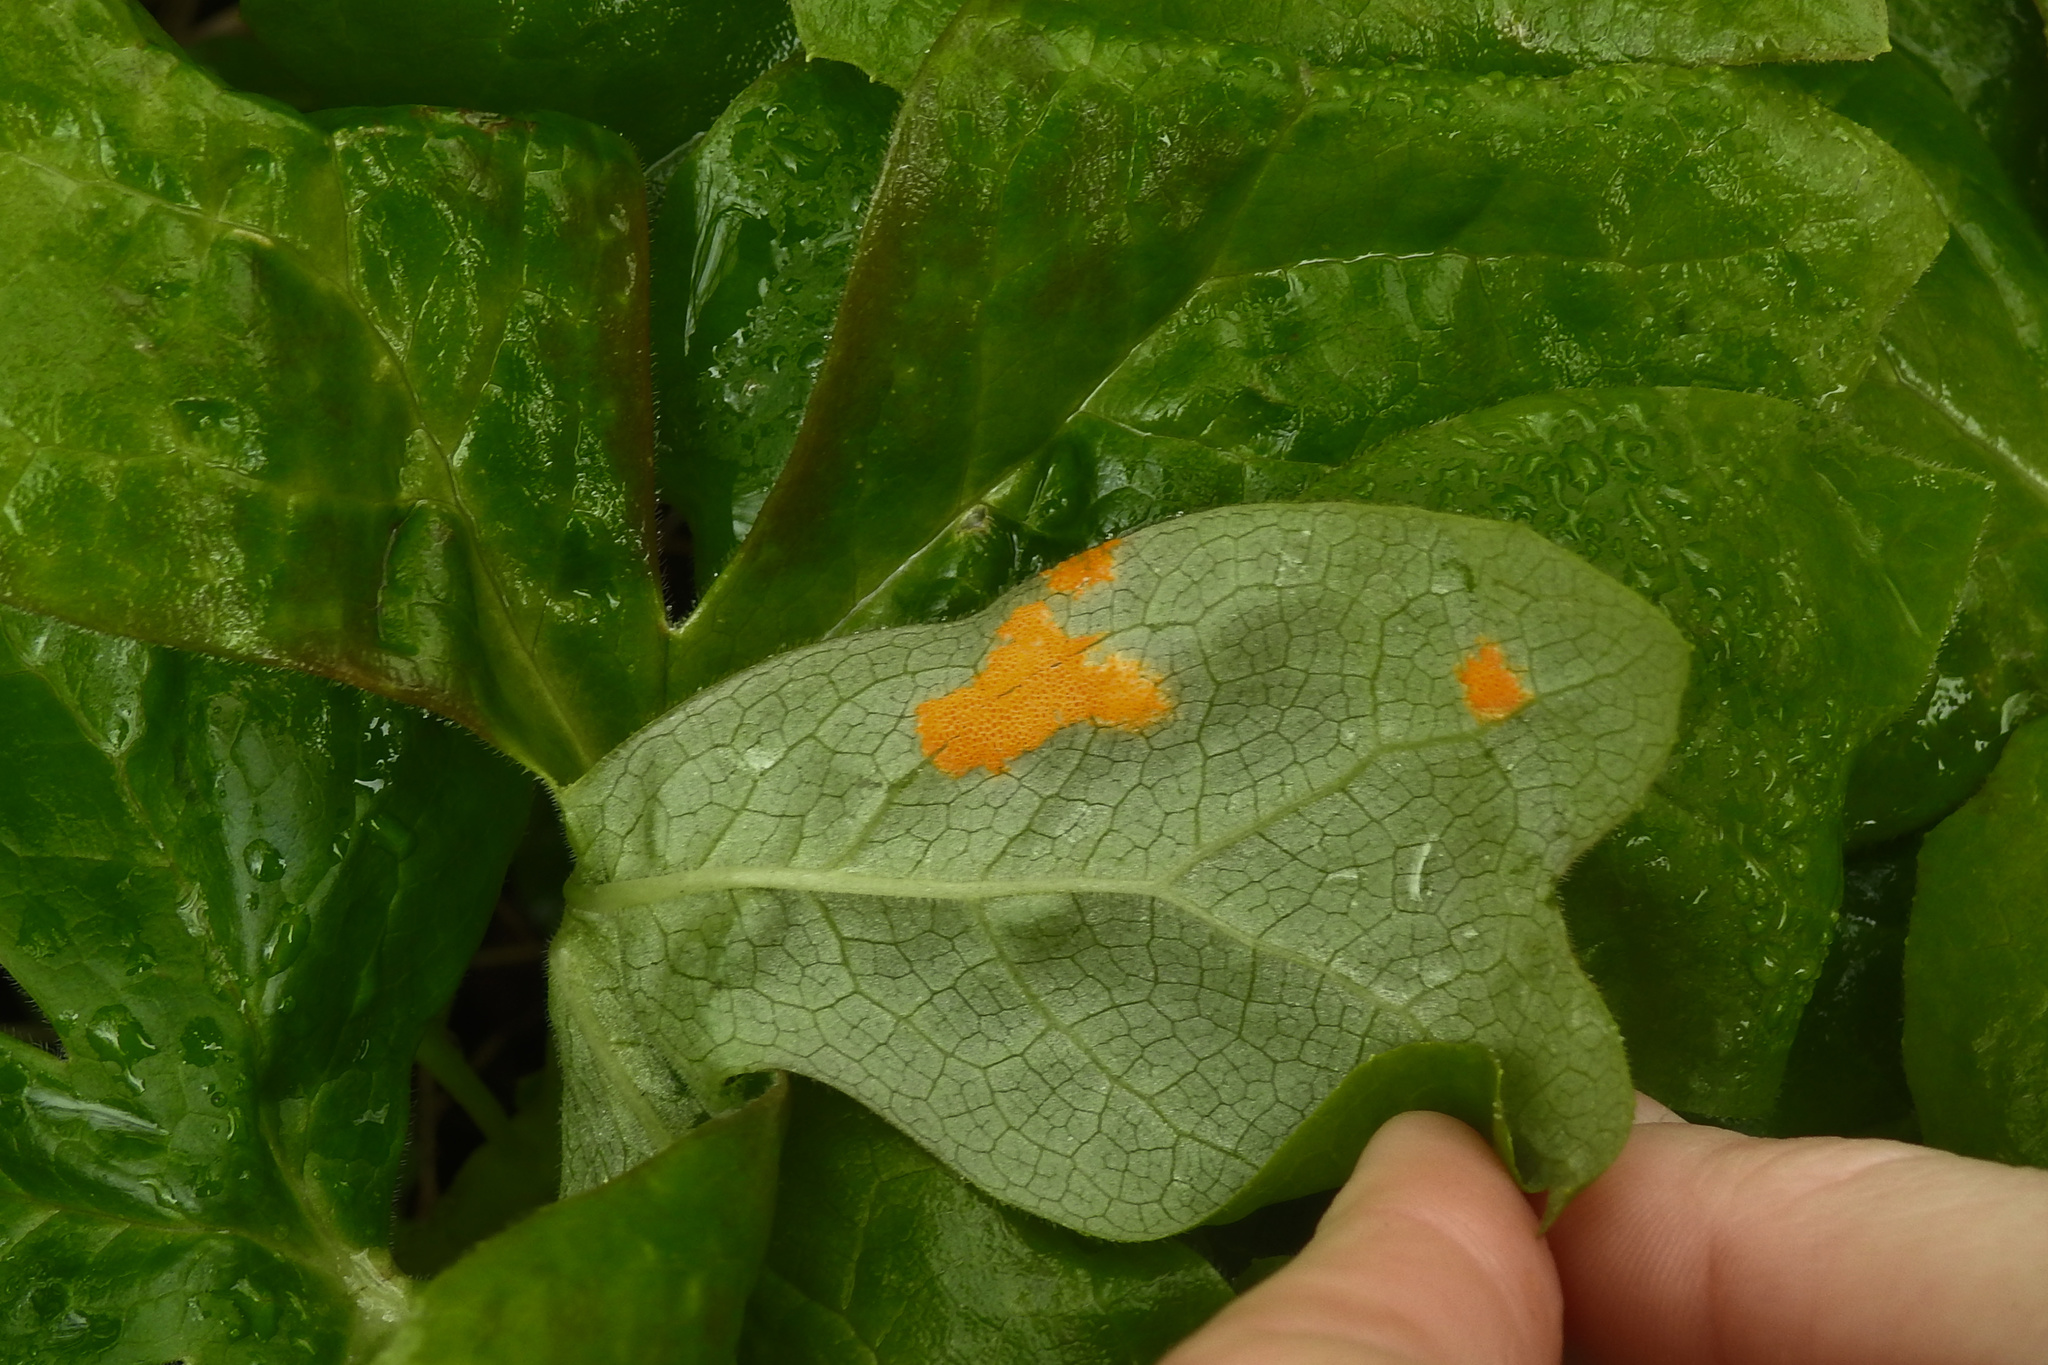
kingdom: Fungi
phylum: Basidiomycota
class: Pucciniomycetes
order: Pucciniales
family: Pucciniaceae
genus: Puccinia
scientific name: Puccinia podophylli
